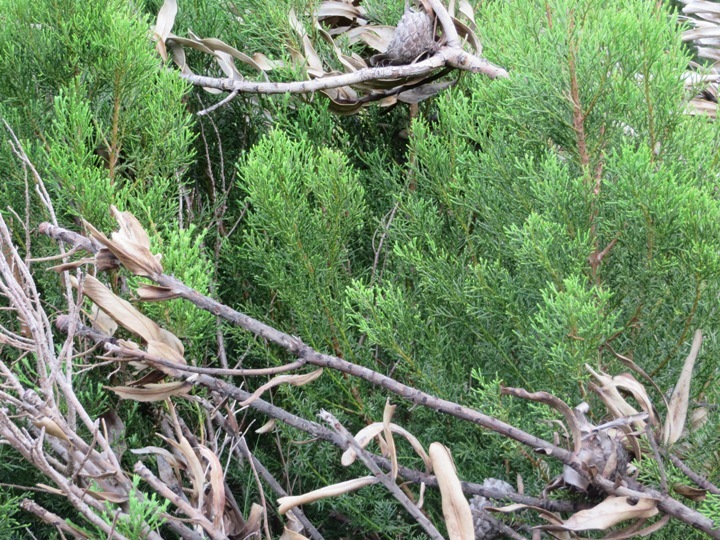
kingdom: Plantae
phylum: Tracheophyta
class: Pinopsida
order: Pinales
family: Cupressaceae
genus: Widdringtonia
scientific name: Widdringtonia nodiflora
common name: Cape cypress
